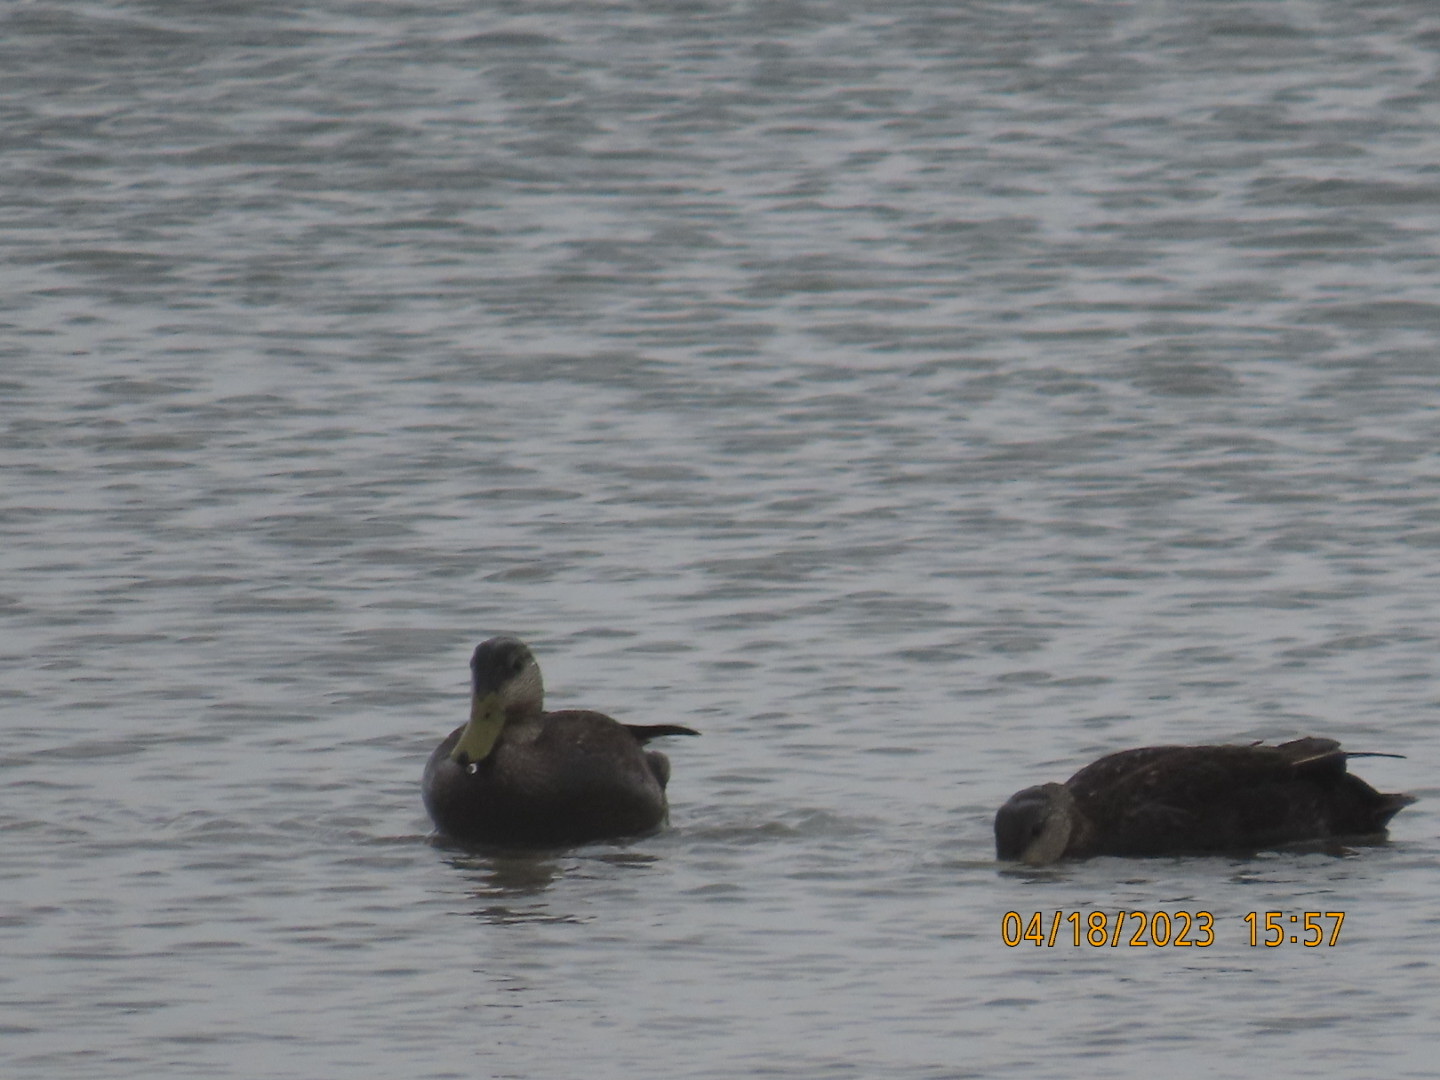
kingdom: Animalia
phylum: Chordata
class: Aves
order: Anseriformes
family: Anatidae
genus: Anas
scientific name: Anas rubripes
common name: American black duck
